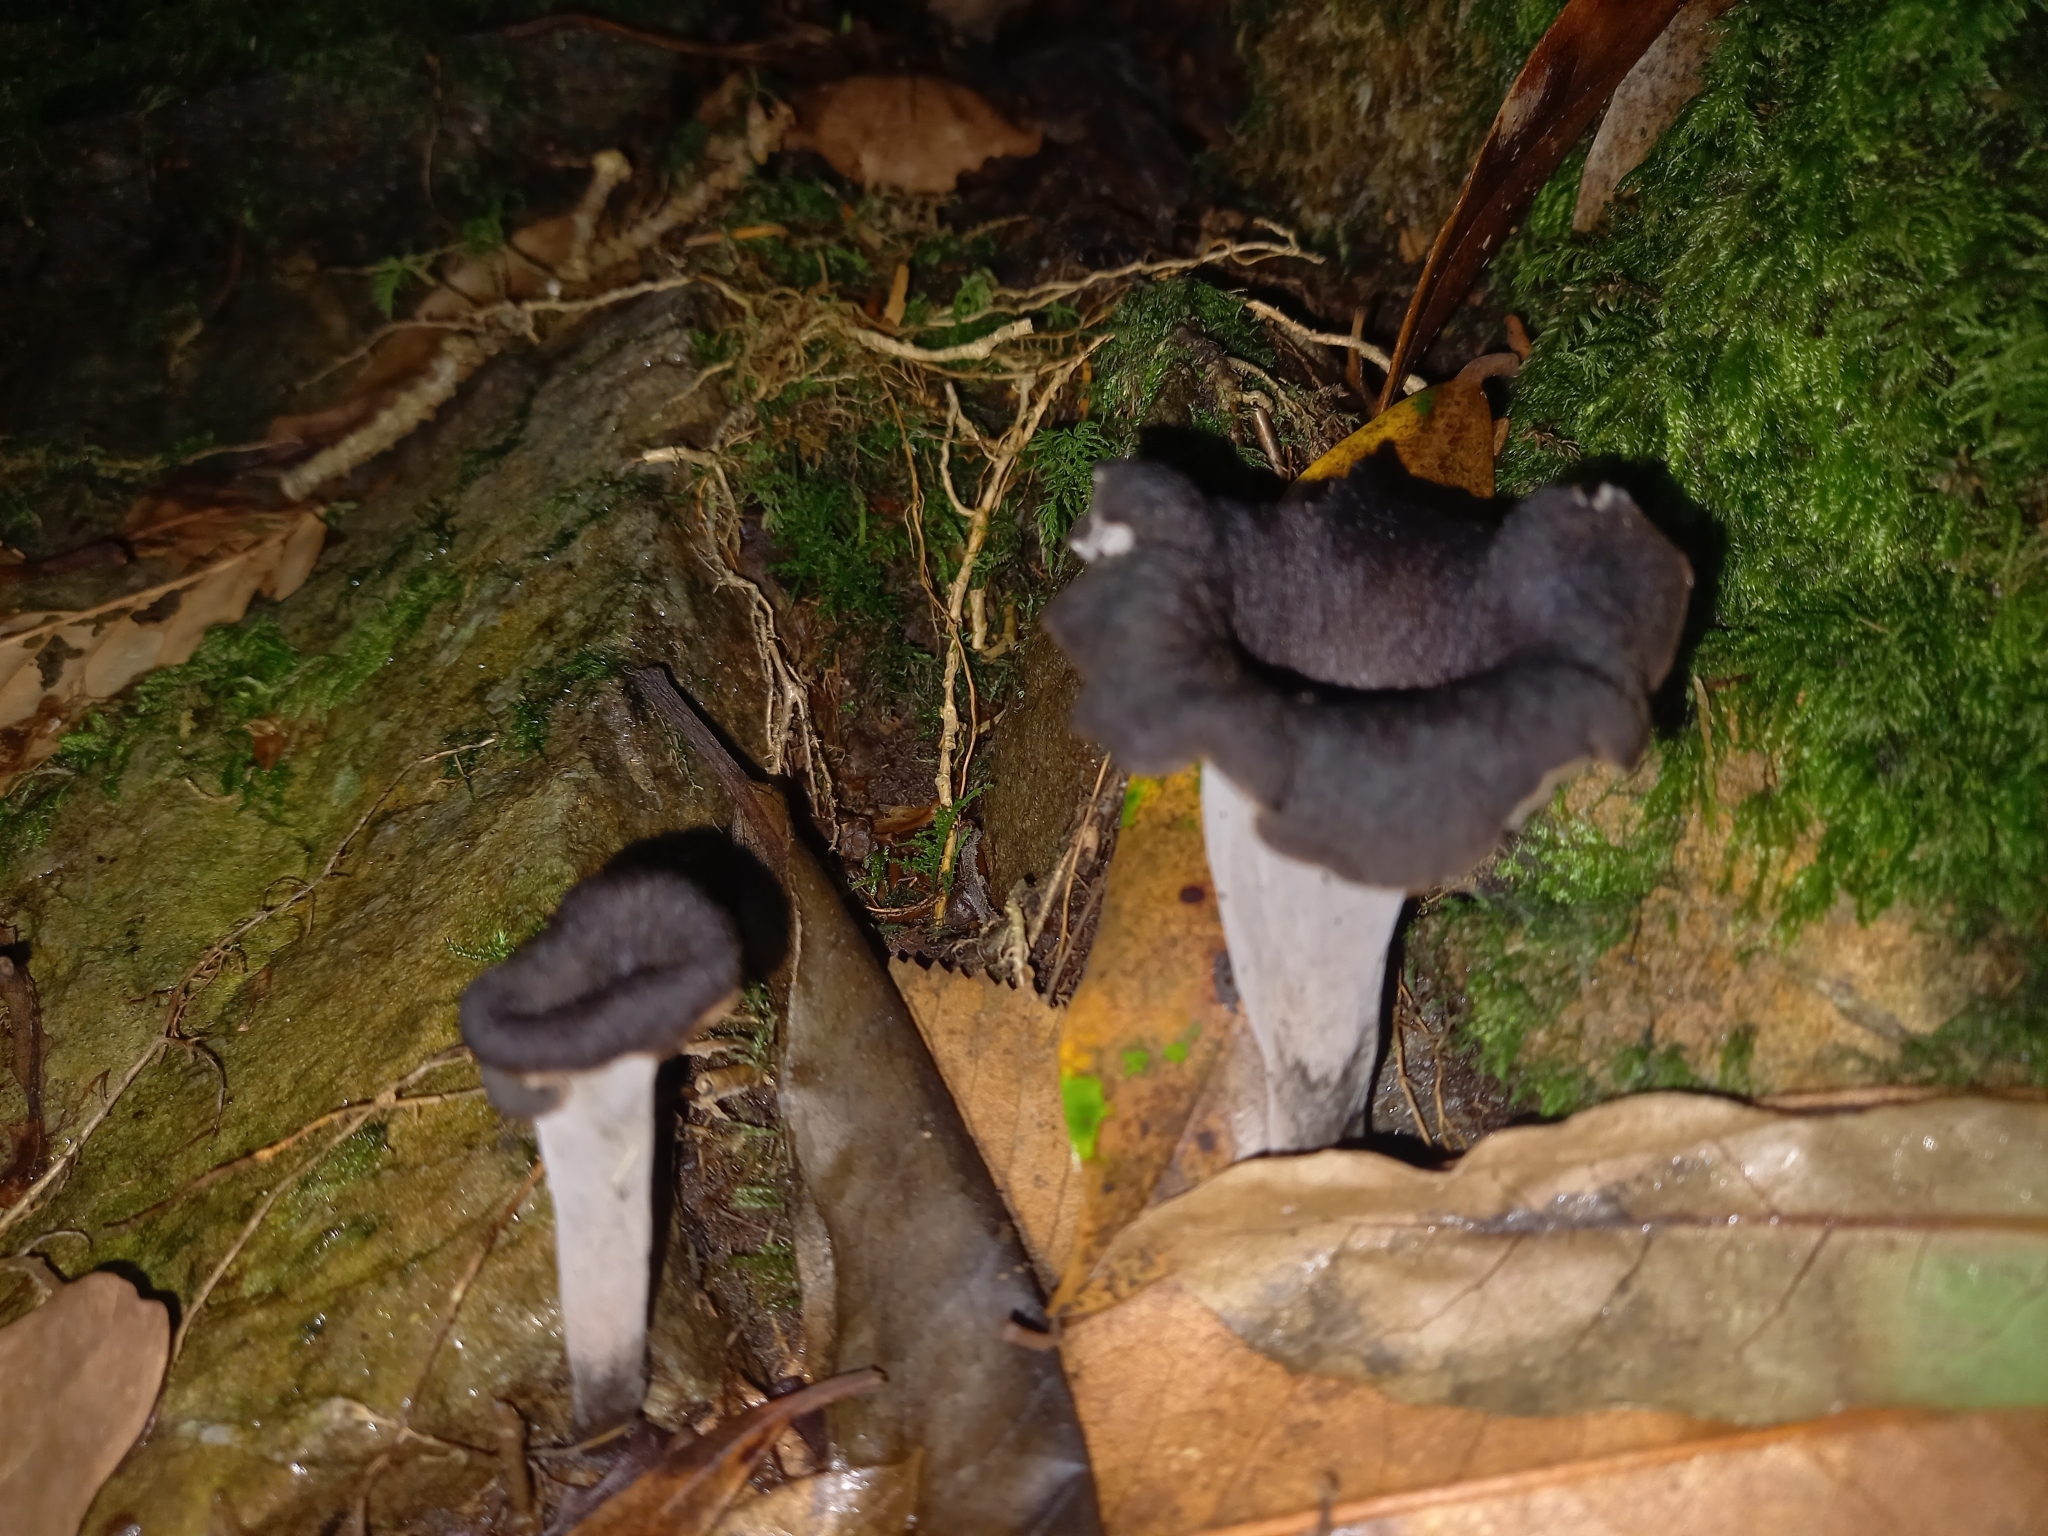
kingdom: Fungi
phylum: Basidiomycota
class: Agaricomycetes
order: Cantharellales
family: Hydnaceae
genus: Craterellus
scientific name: Craterellus cornucopioides
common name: Horn of plenty
